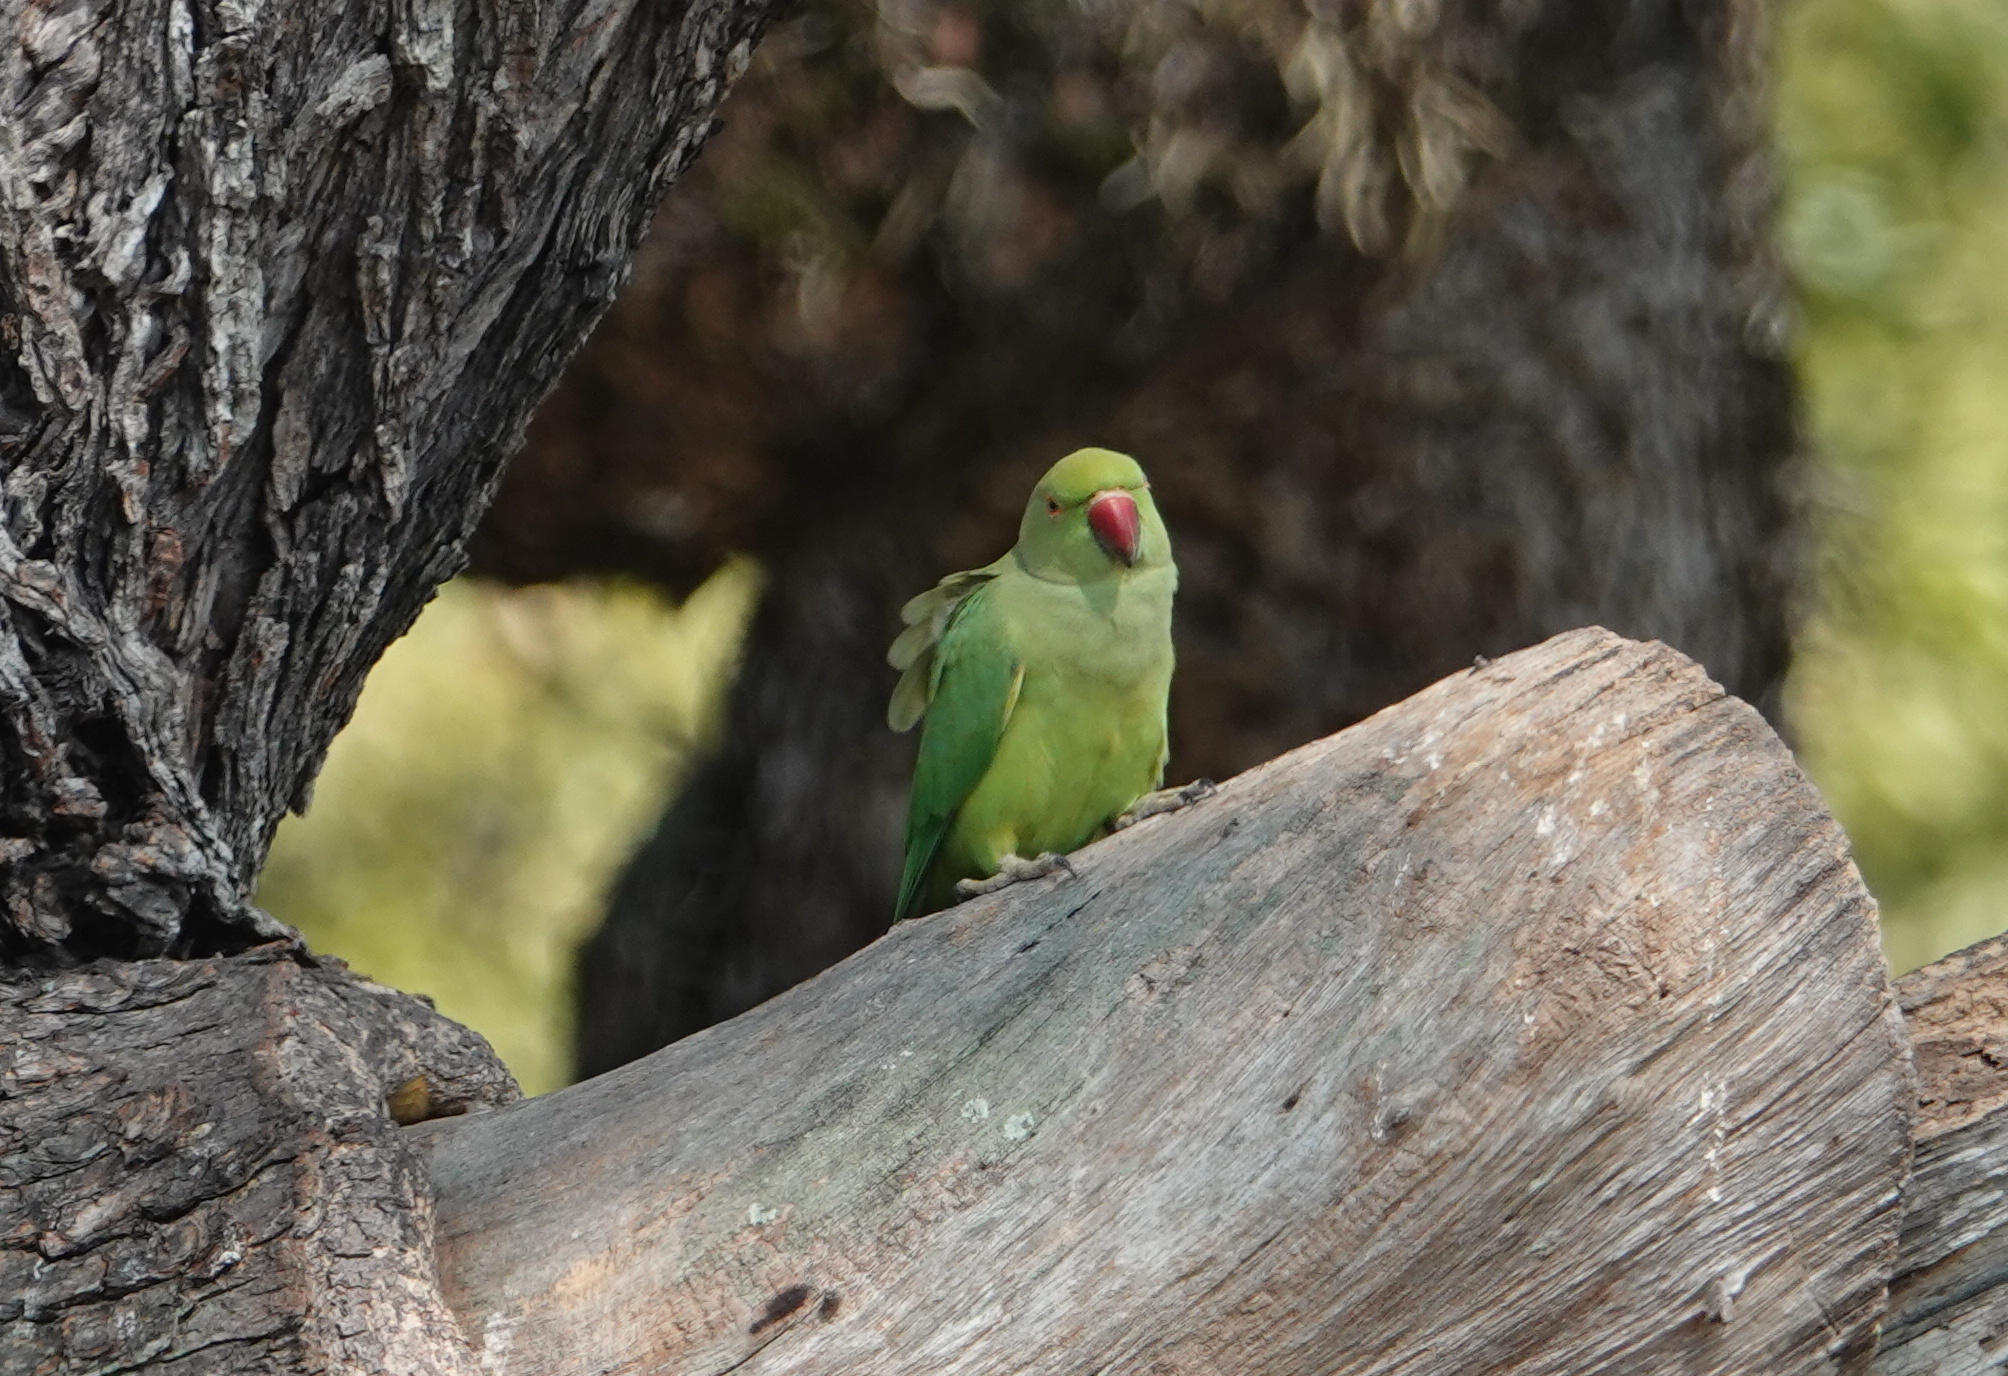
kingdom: Animalia
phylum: Chordata
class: Aves
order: Psittaciformes
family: Psittacidae
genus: Psittacula
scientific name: Psittacula krameri
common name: Rose-ringed parakeet
